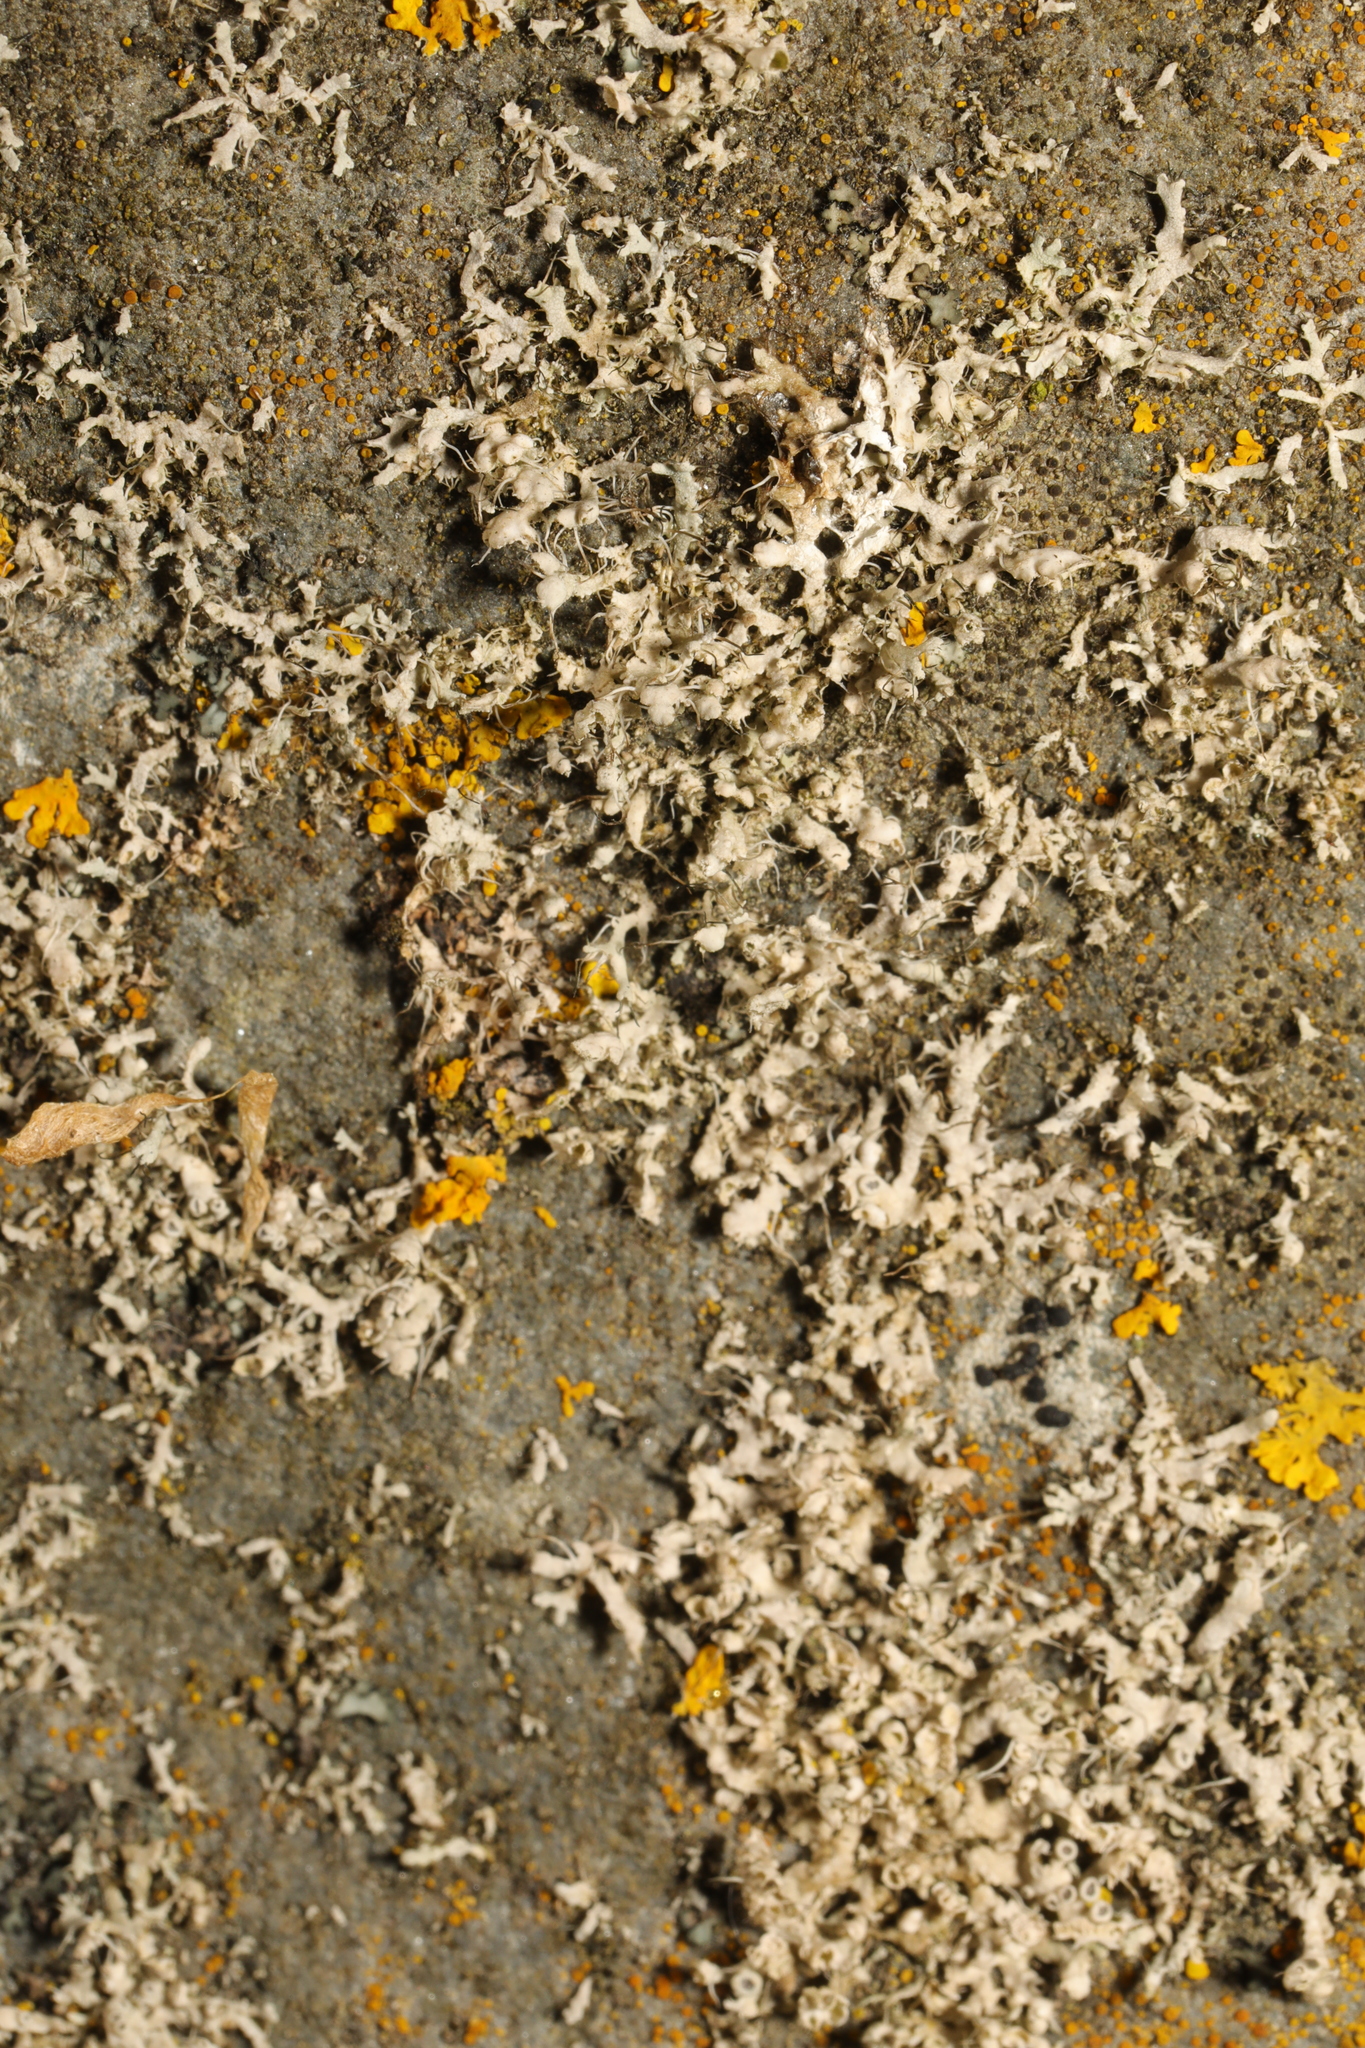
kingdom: Fungi
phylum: Ascomycota
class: Lecanoromycetes
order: Caliciales
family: Physciaceae
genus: Physcia
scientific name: Physcia adscendens
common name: Hooded rosette lichen
